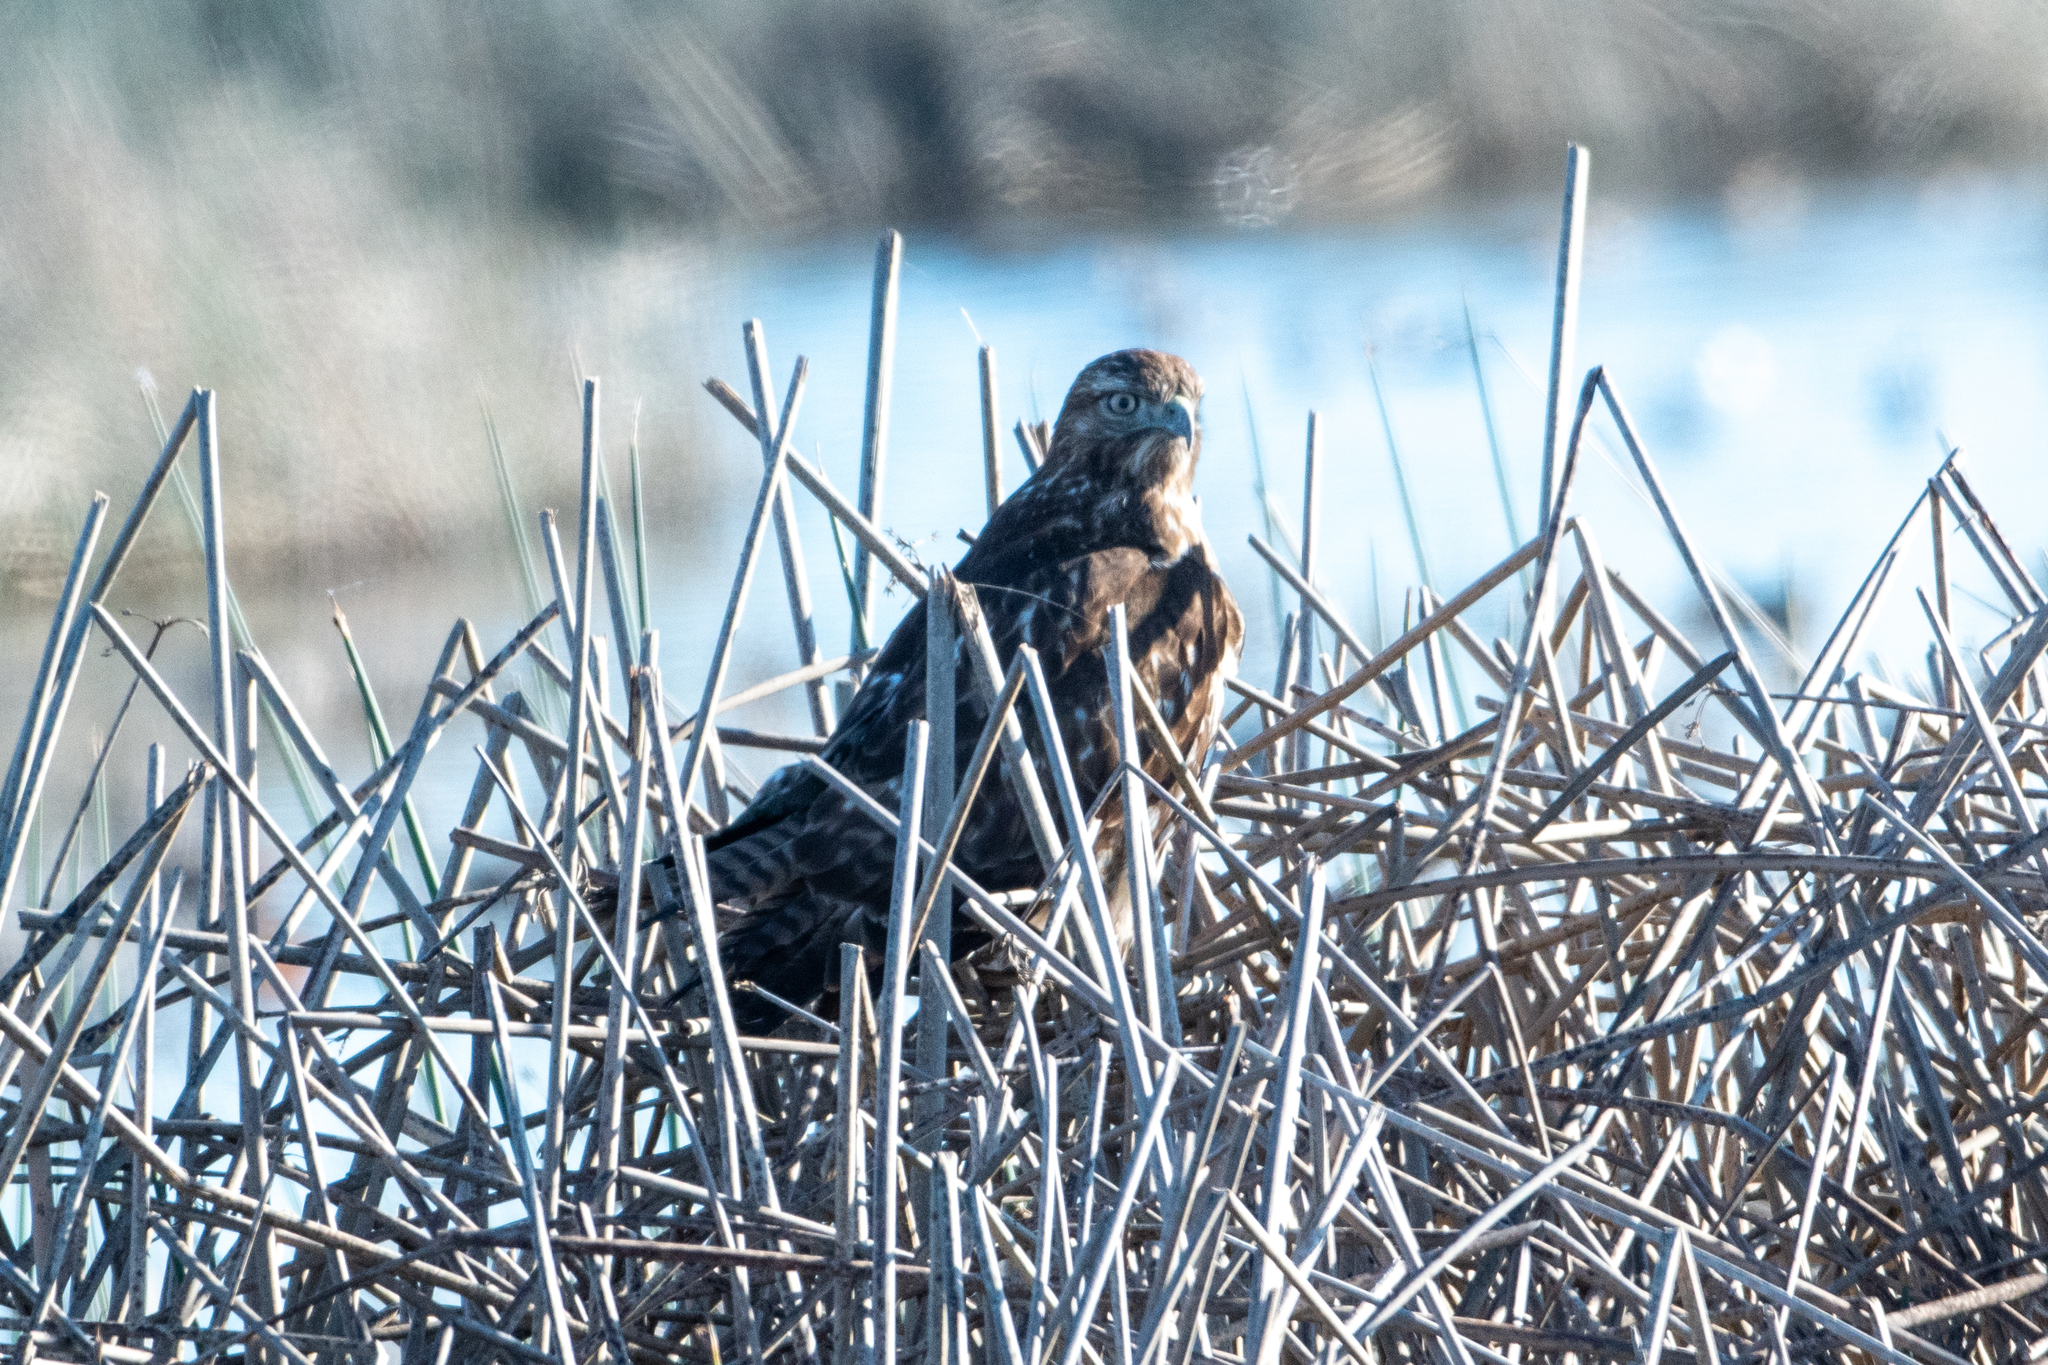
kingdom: Animalia
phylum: Chordata
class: Aves
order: Accipitriformes
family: Accipitridae
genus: Buteo
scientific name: Buteo jamaicensis
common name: Red-tailed hawk
